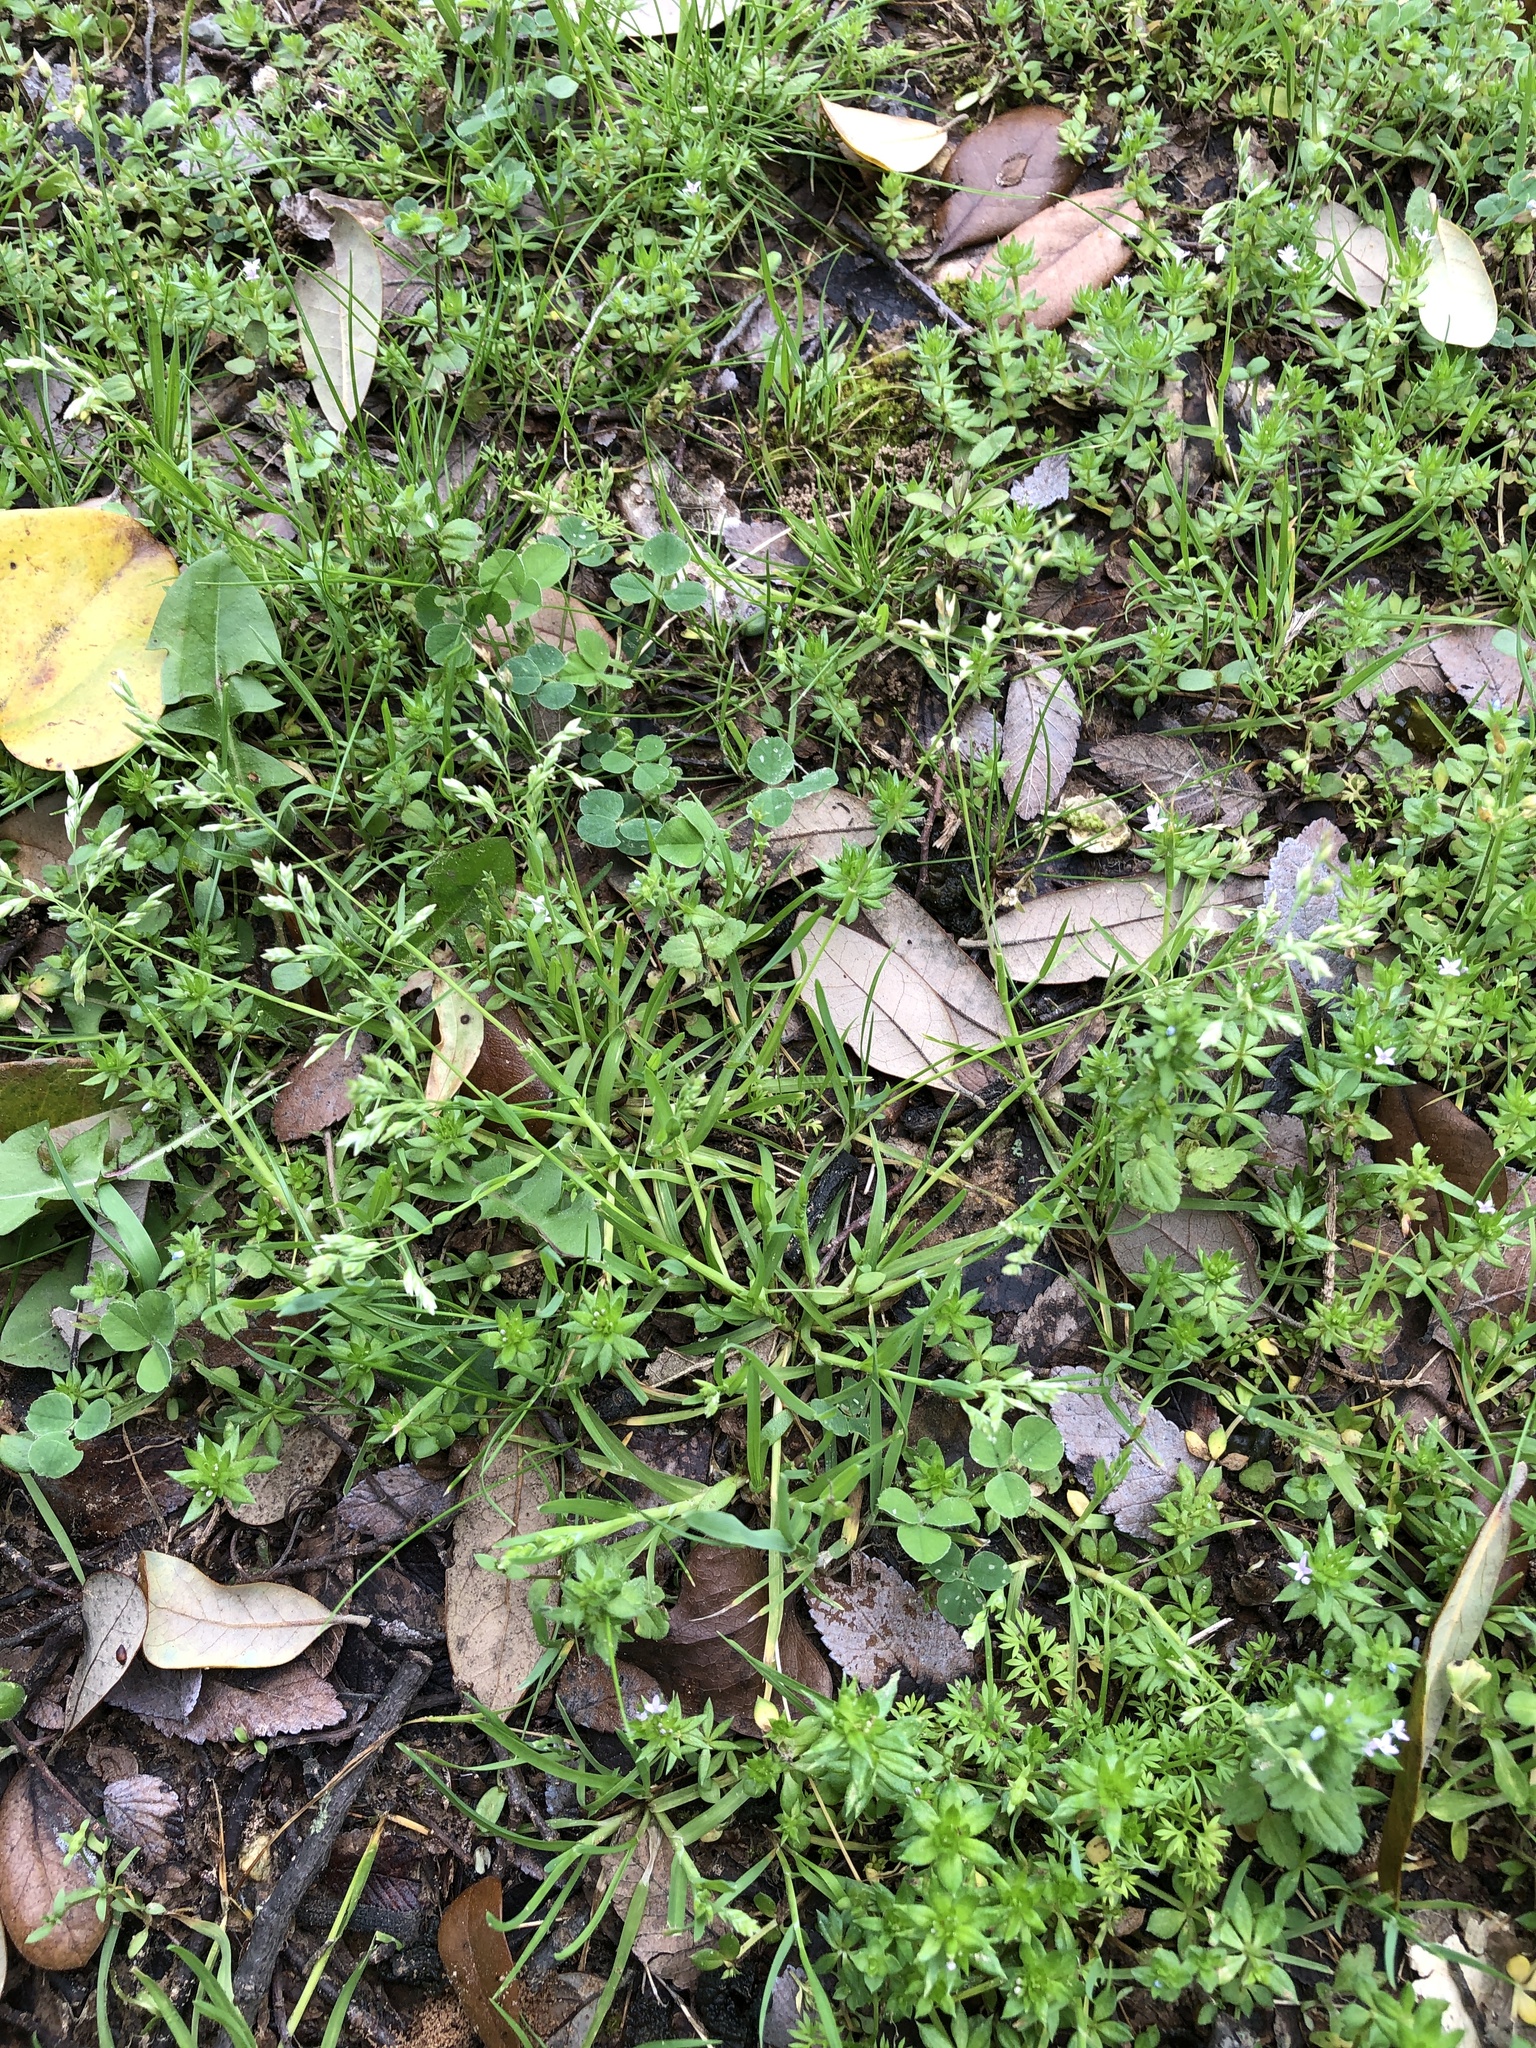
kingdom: Plantae
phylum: Tracheophyta
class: Liliopsida
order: Poales
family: Poaceae
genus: Poa
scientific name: Poa annua
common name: Annual bluegrass
